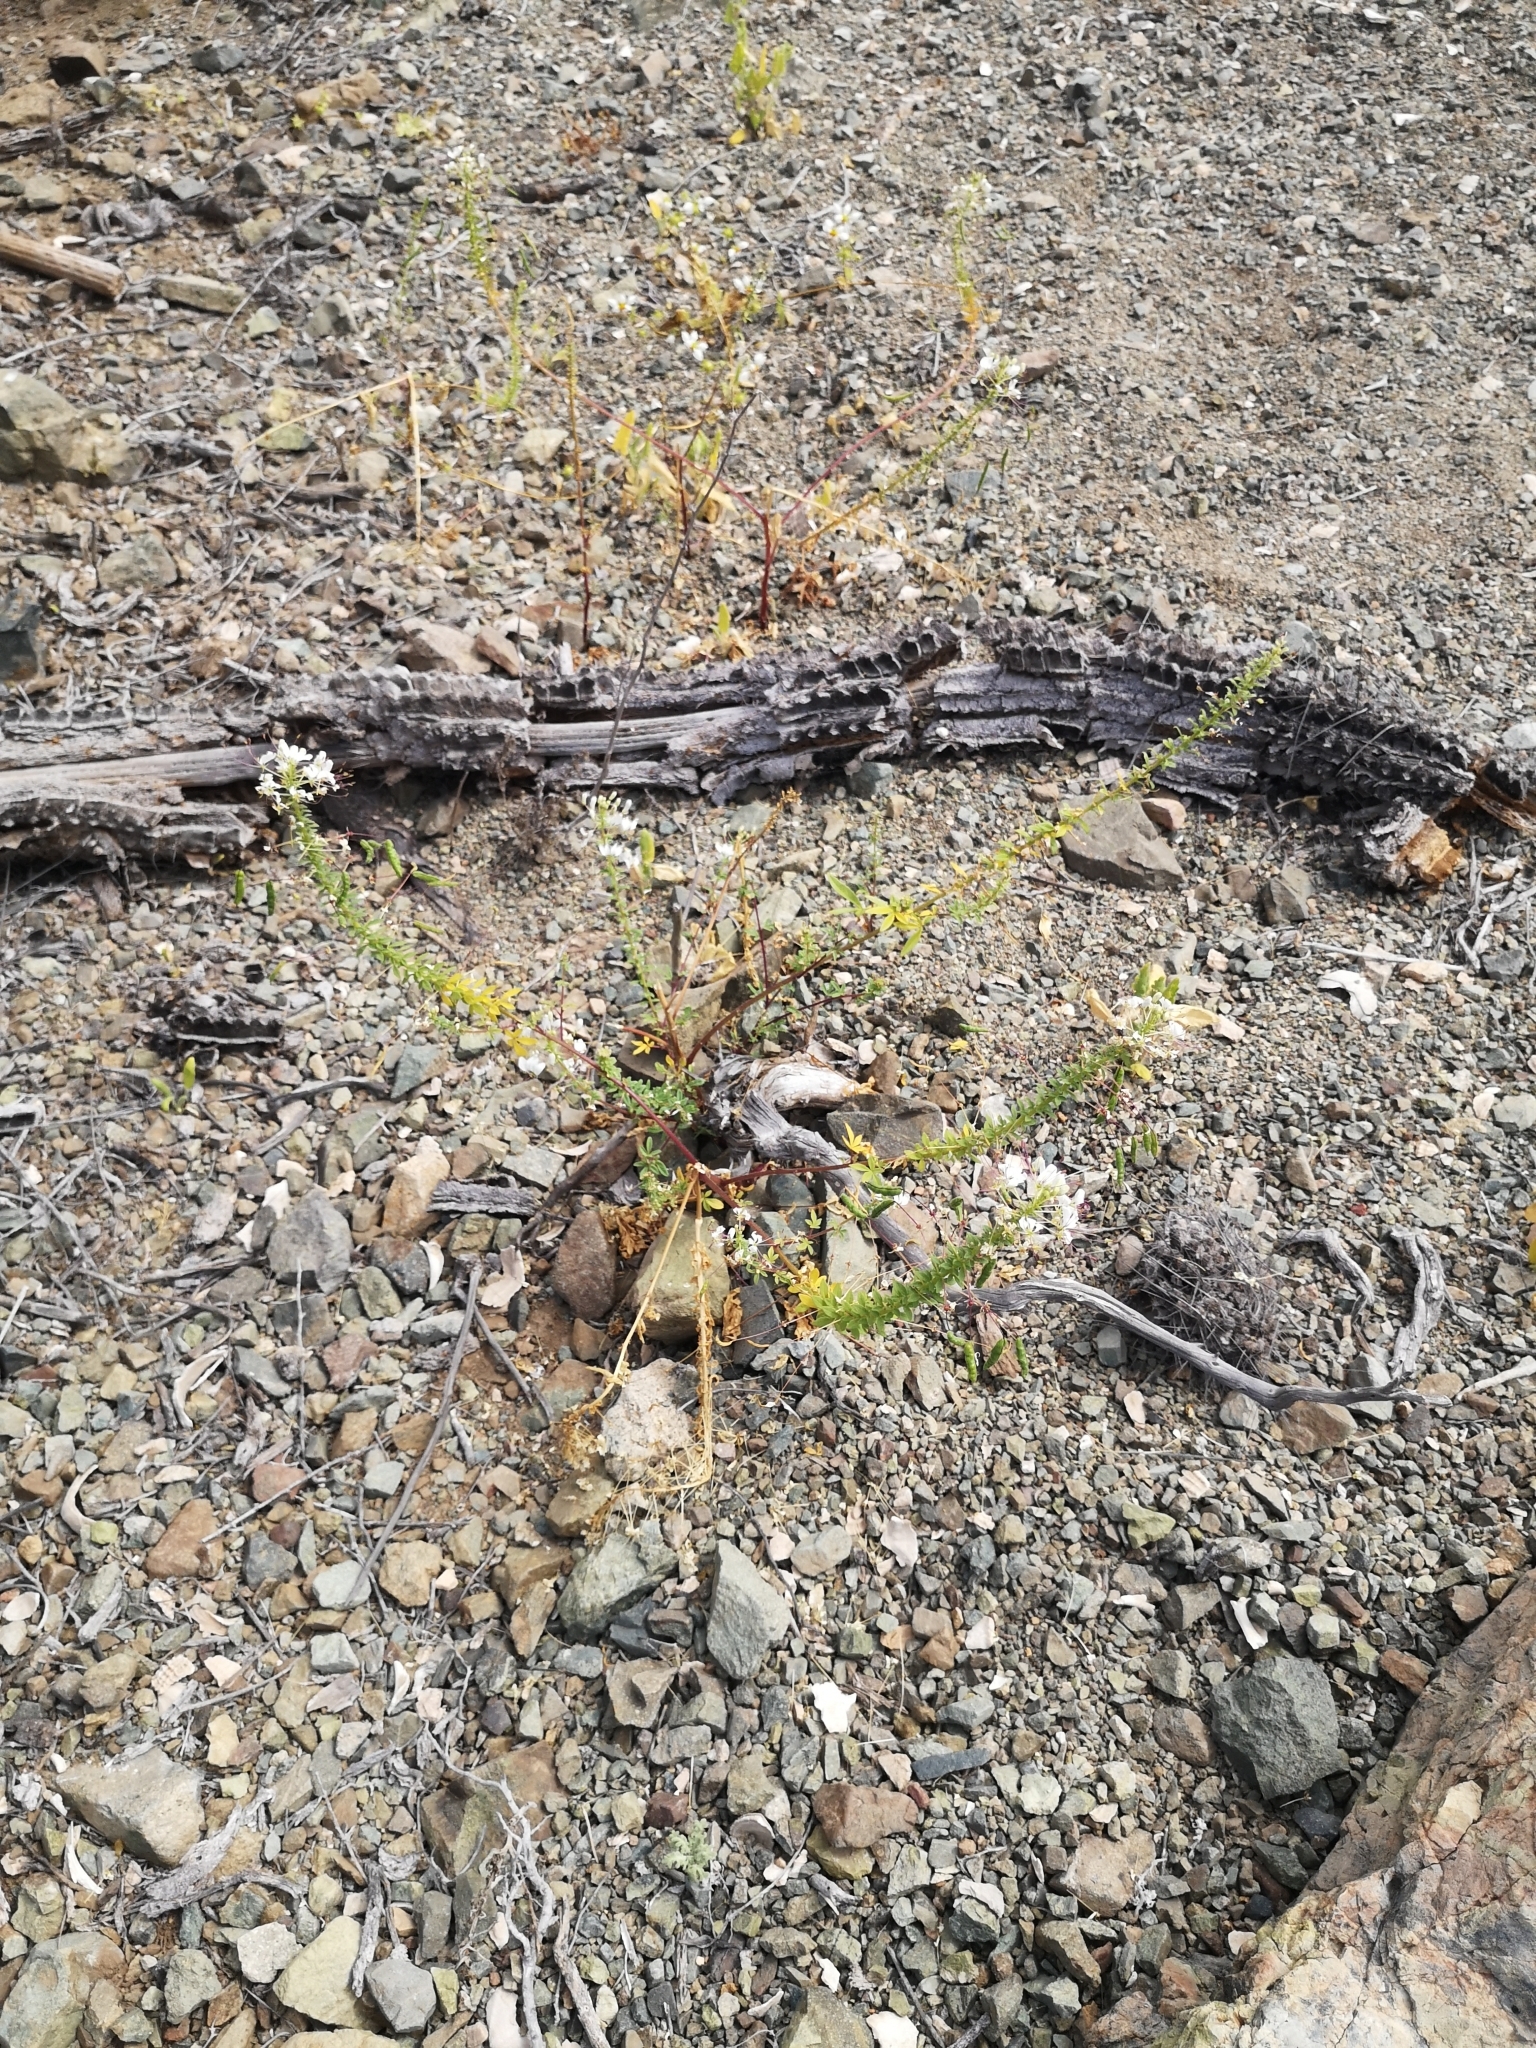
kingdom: Plantae
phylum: Tracheophyta
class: Magnoliopsida
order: Brassicales
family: Cleomaceae
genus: Andinocleome
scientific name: Andinocleome chilensis
